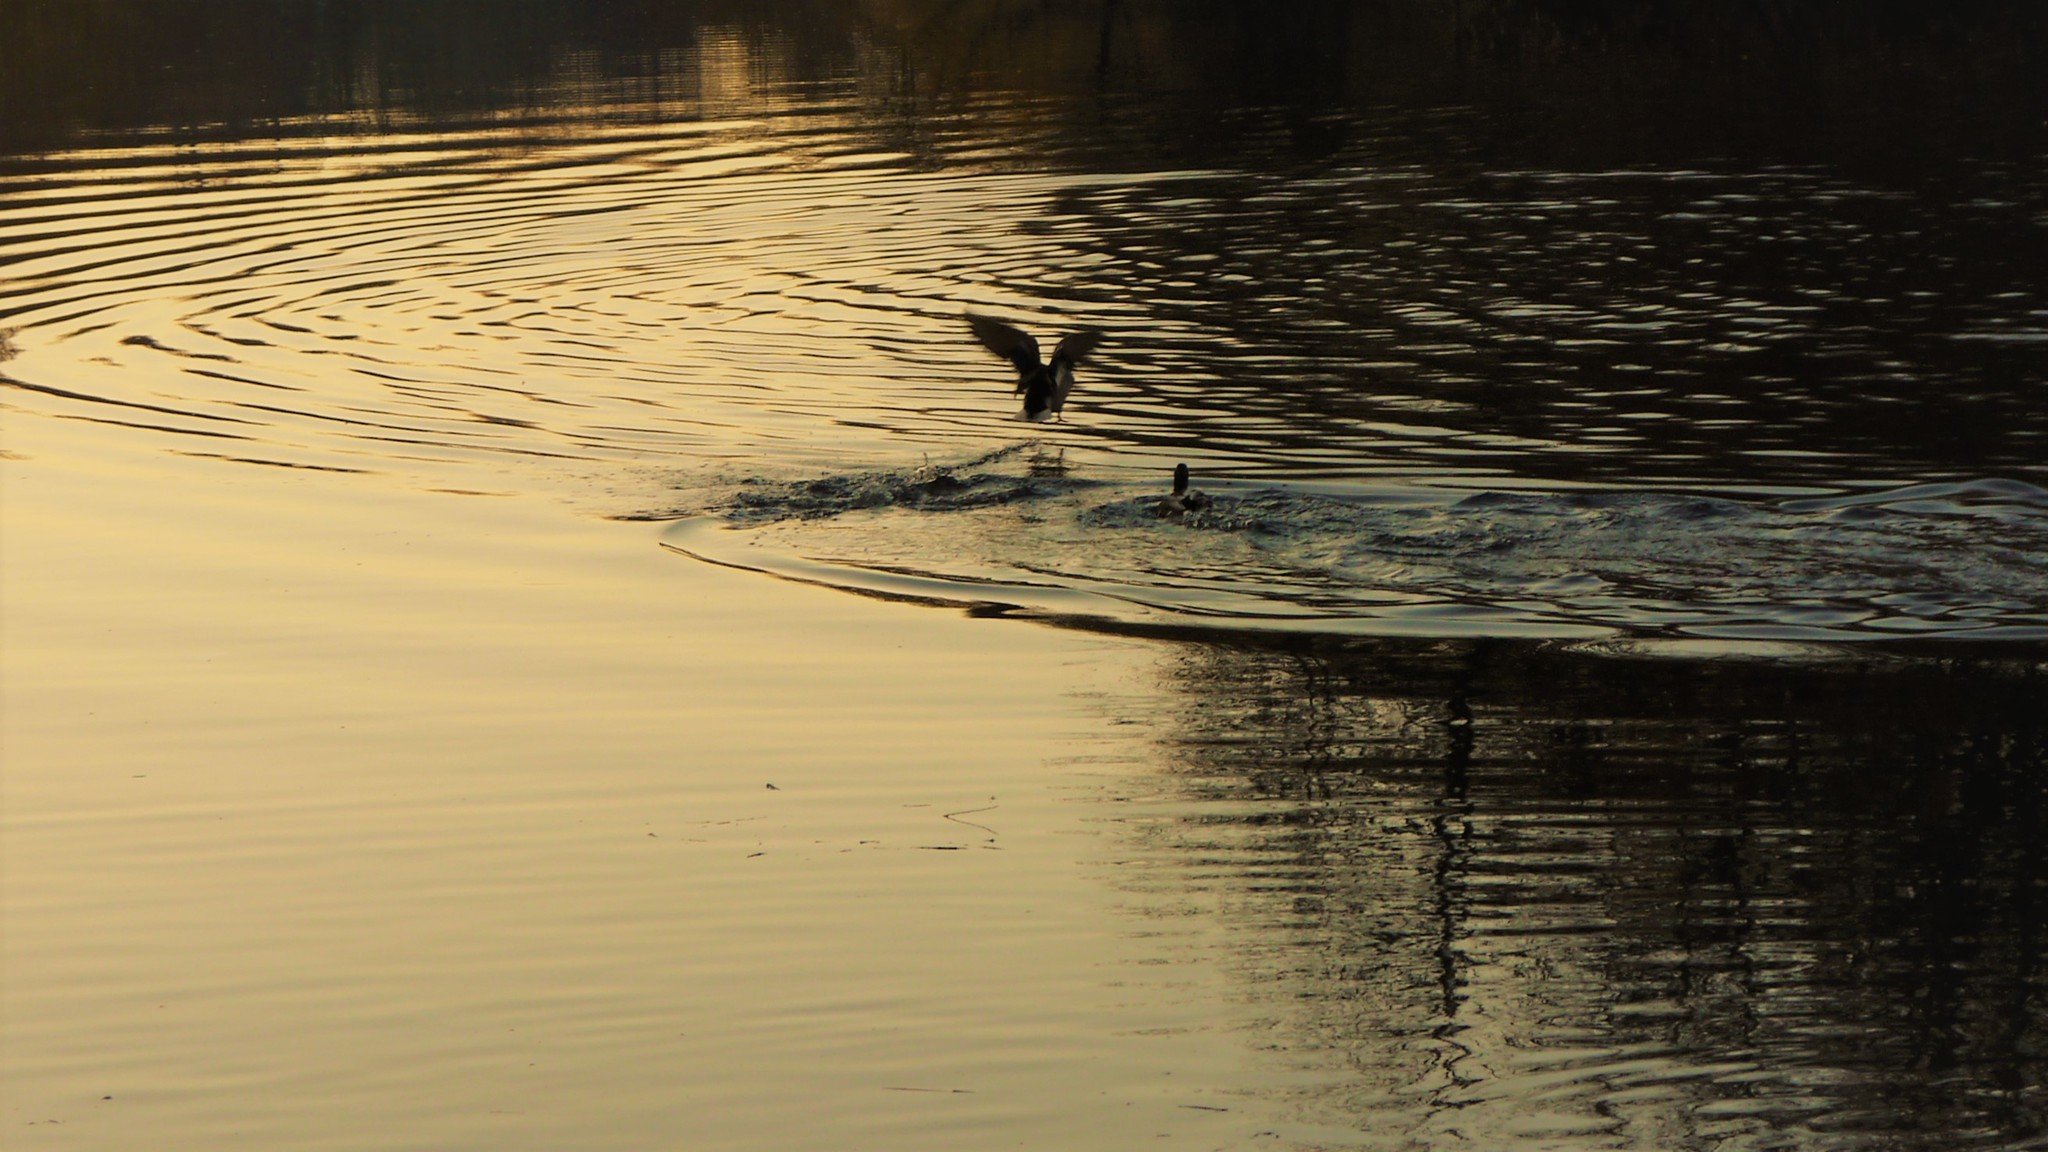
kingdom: Animalia
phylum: Chordata
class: Aves
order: Anseriformes
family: Anatidae
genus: Anas
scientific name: Anas platyrhynchos
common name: Mallard
